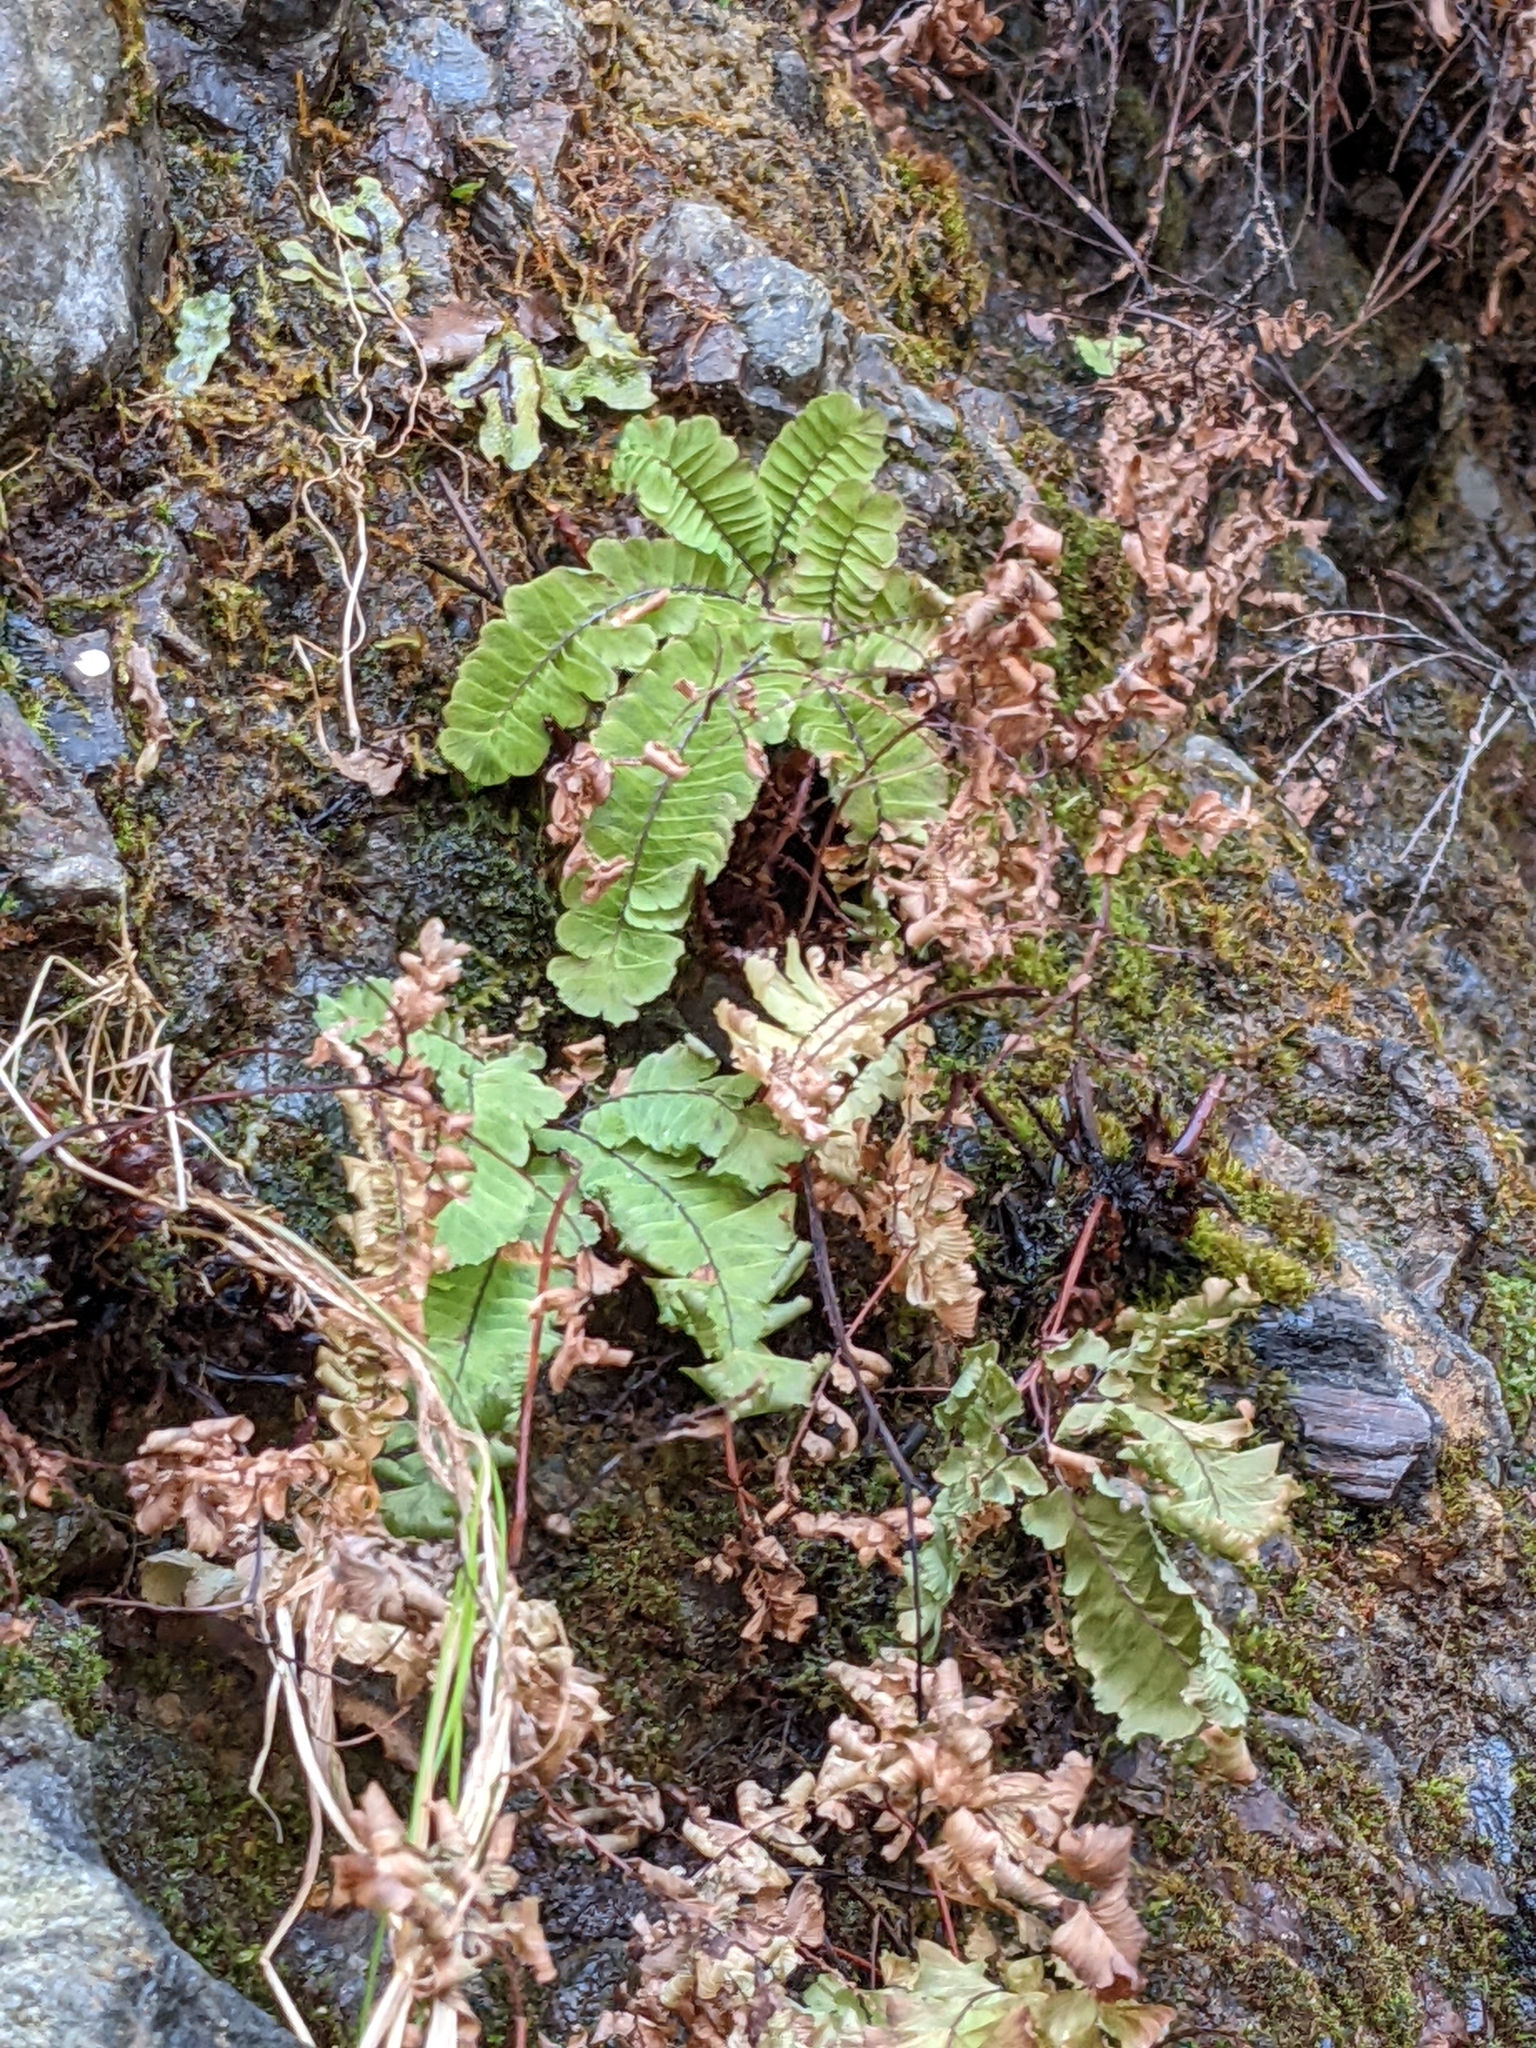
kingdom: Plantae
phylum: Tracheophyta
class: Polypodiopsida
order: Polypodiales
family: Pteridaceae
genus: Adiantum
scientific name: Adiantum aleuticum
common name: Aleutian maidenhair fern
